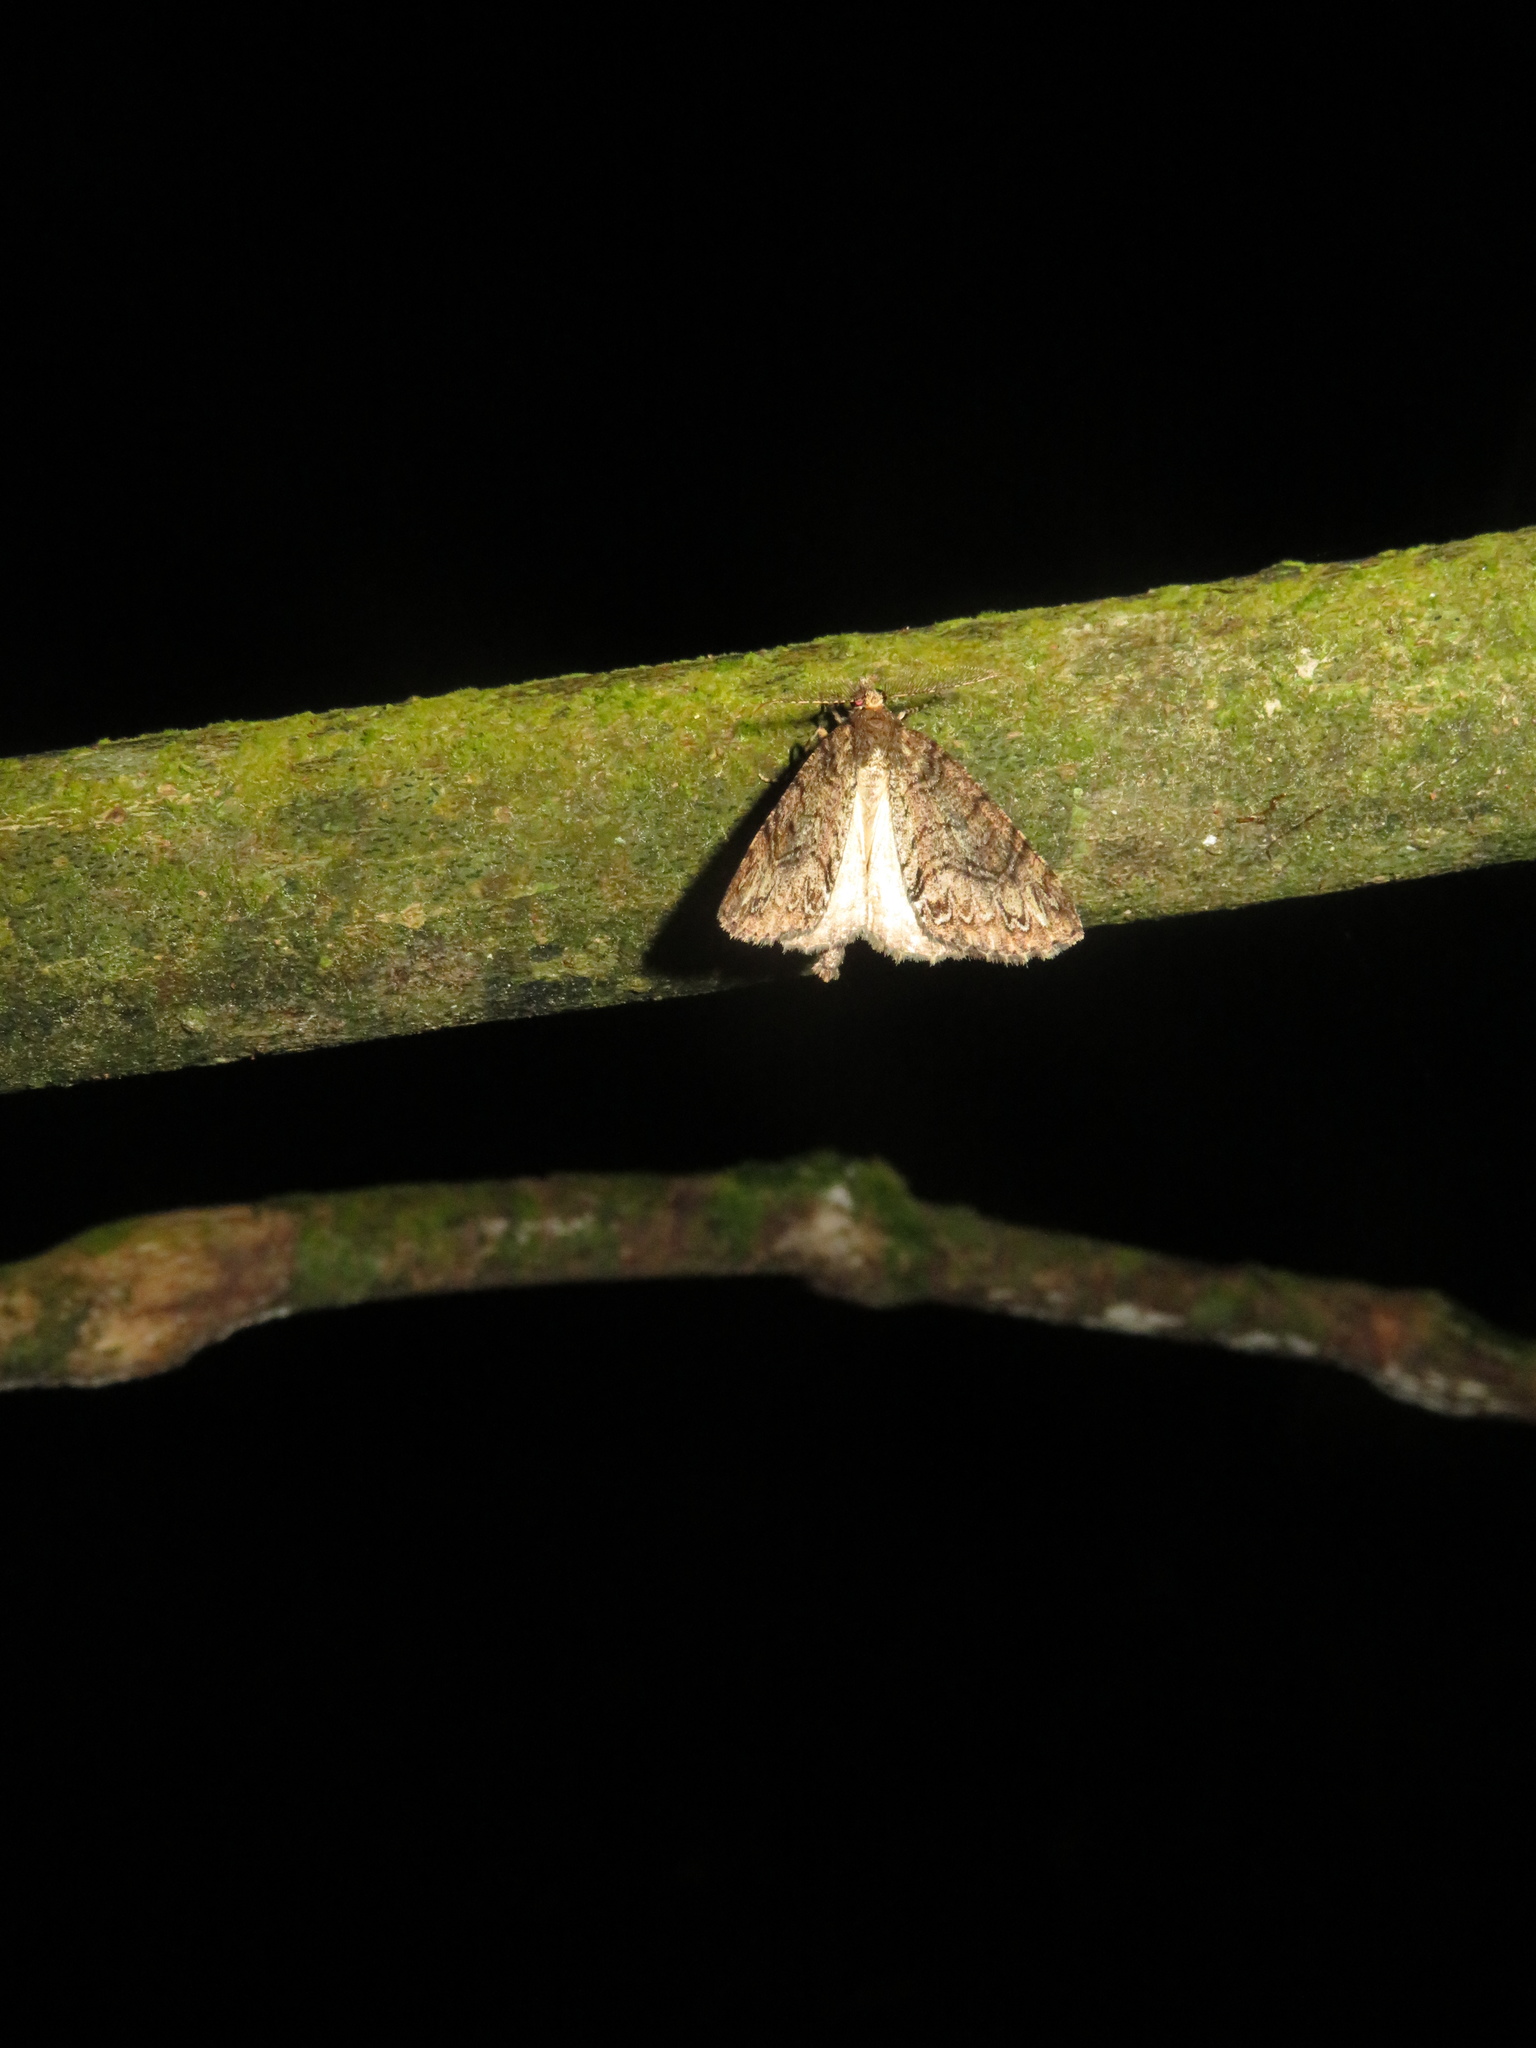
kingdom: Animalia
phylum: Arthropoda
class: Insecta
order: Lepidoptera
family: Geometridae
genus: Pseudocoremia
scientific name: Pseudocoremia suavis
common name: Common forest looper
